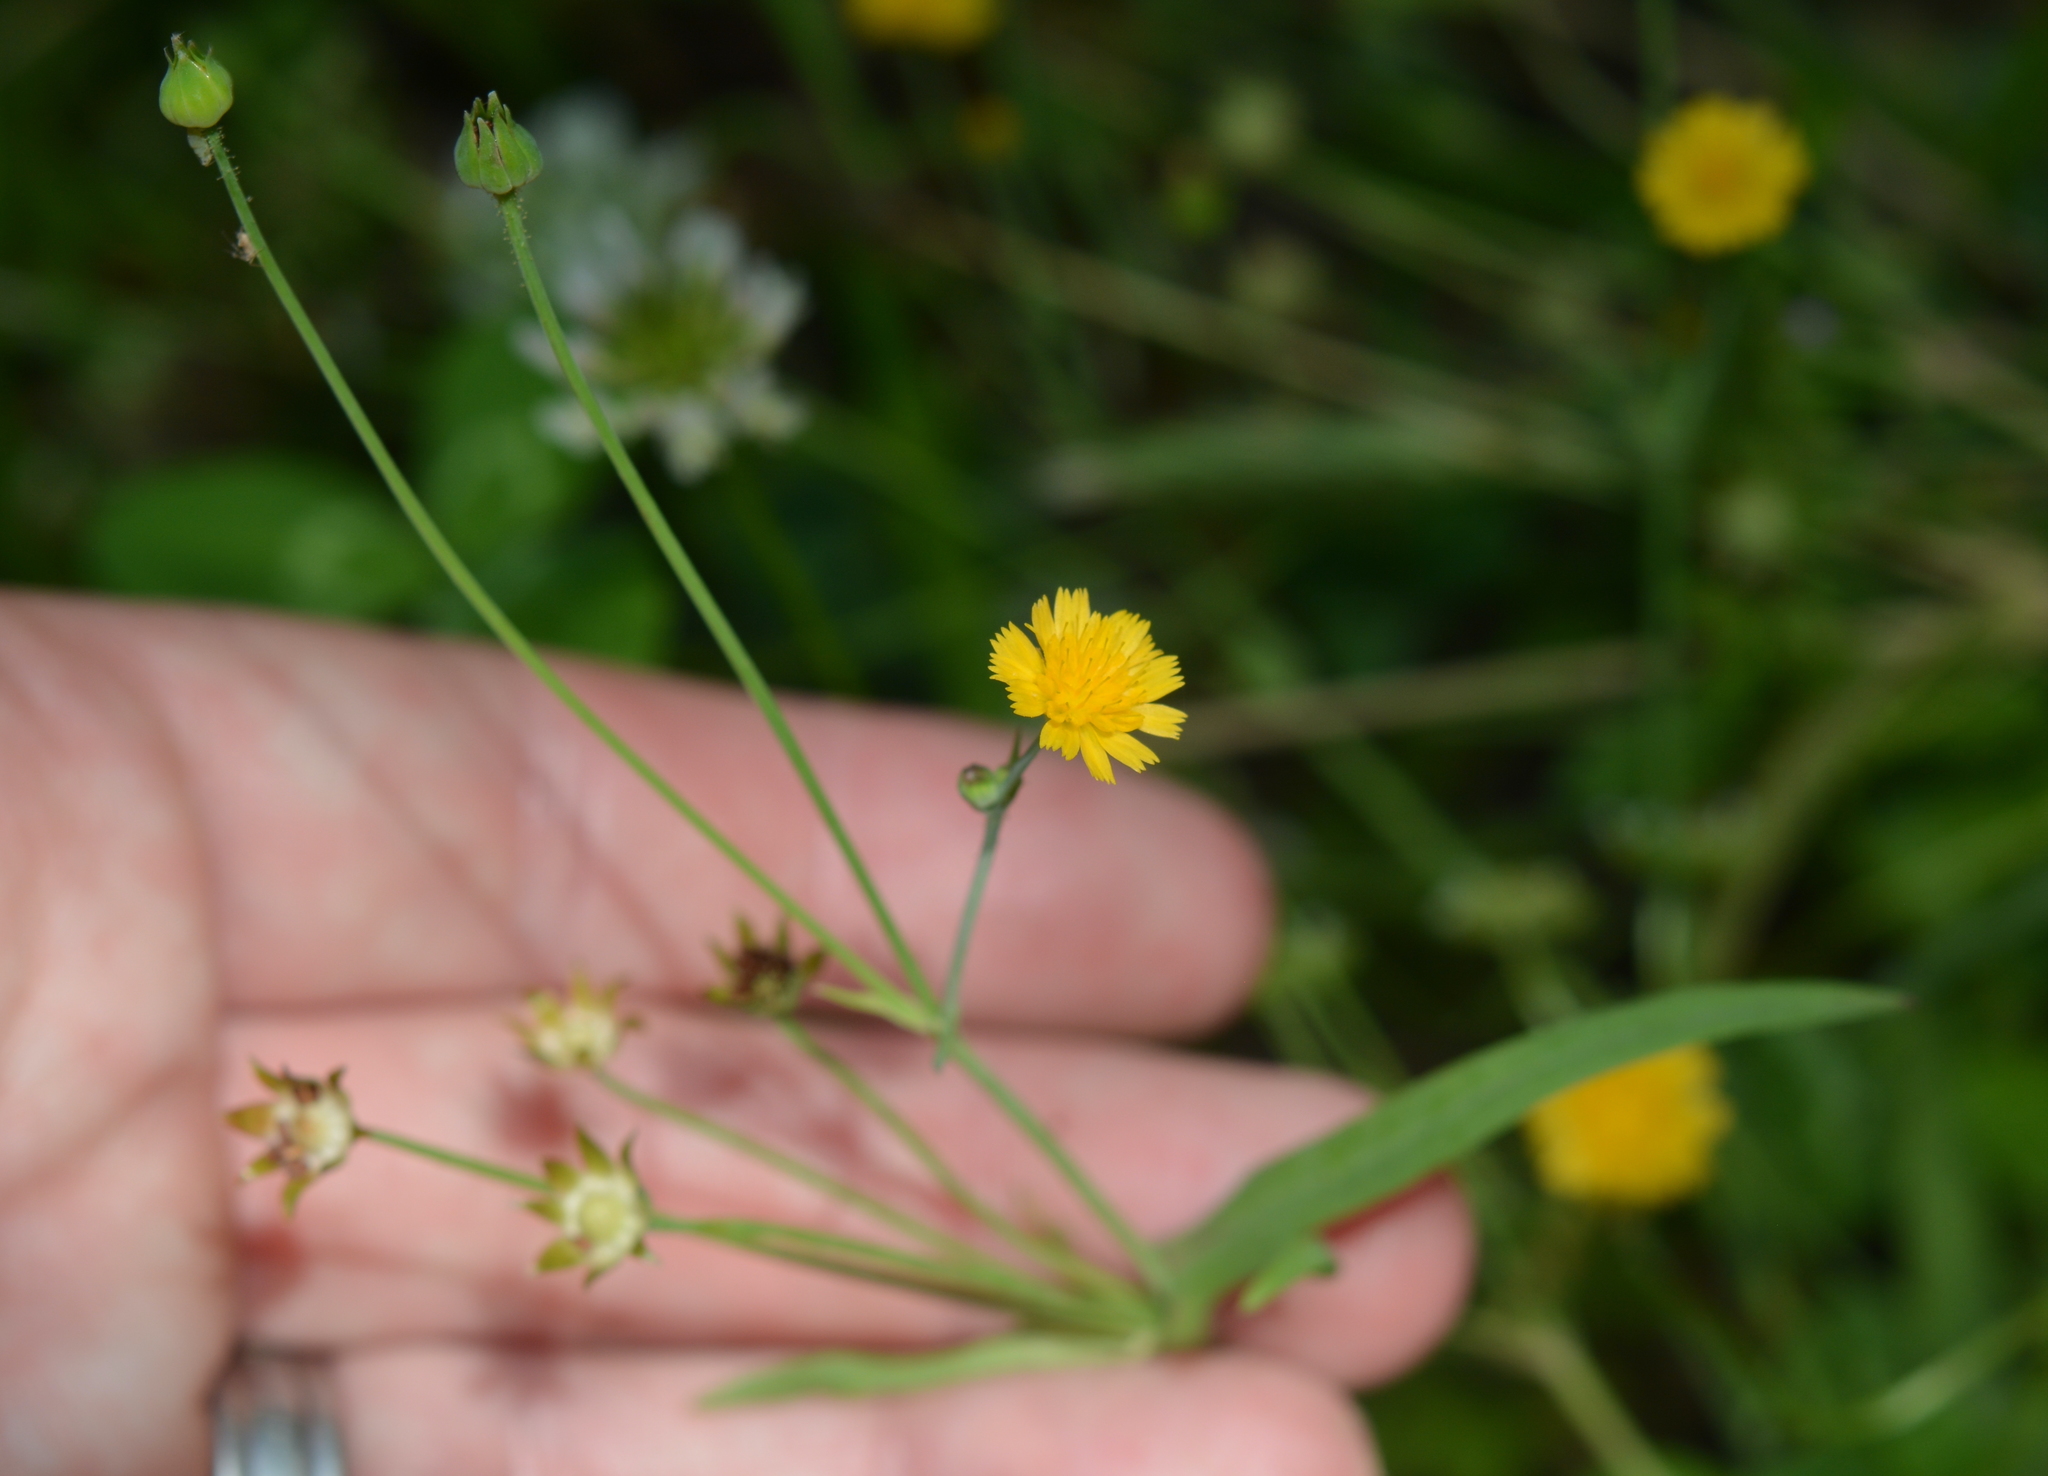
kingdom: Plantae
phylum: Tracheophyta
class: Magnoliopsida
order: Asterales
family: Asteraceae
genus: Krigia
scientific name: Krigia cespitosa
